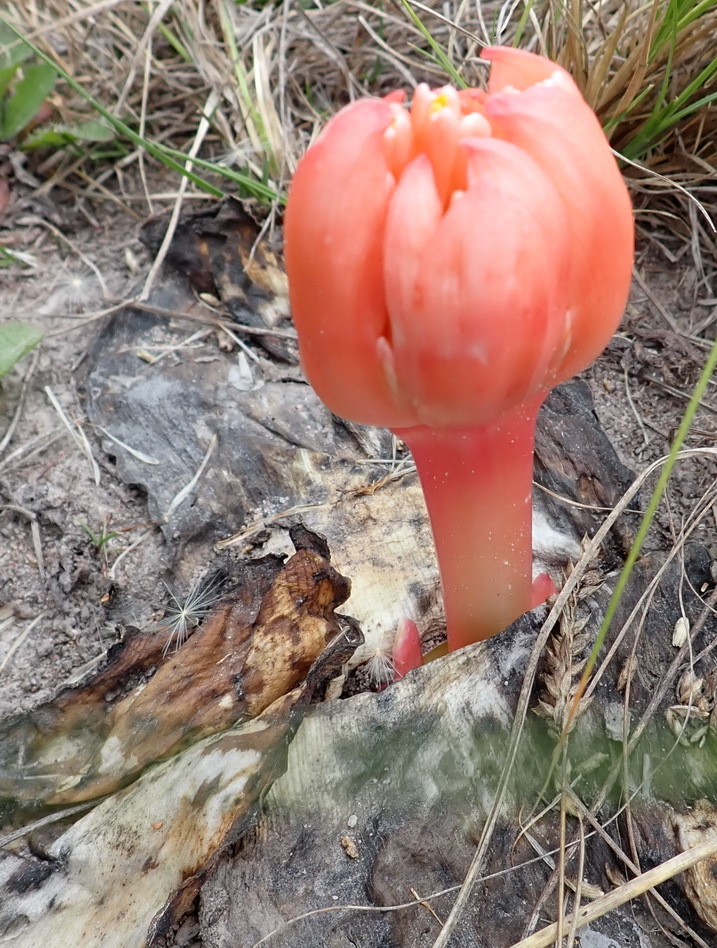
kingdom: Plantae
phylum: Tracheophyta
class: Liliopsida
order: Asparagales
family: Amaryllidaceae
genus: Haemanthus
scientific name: Haemanthus sanguineus
